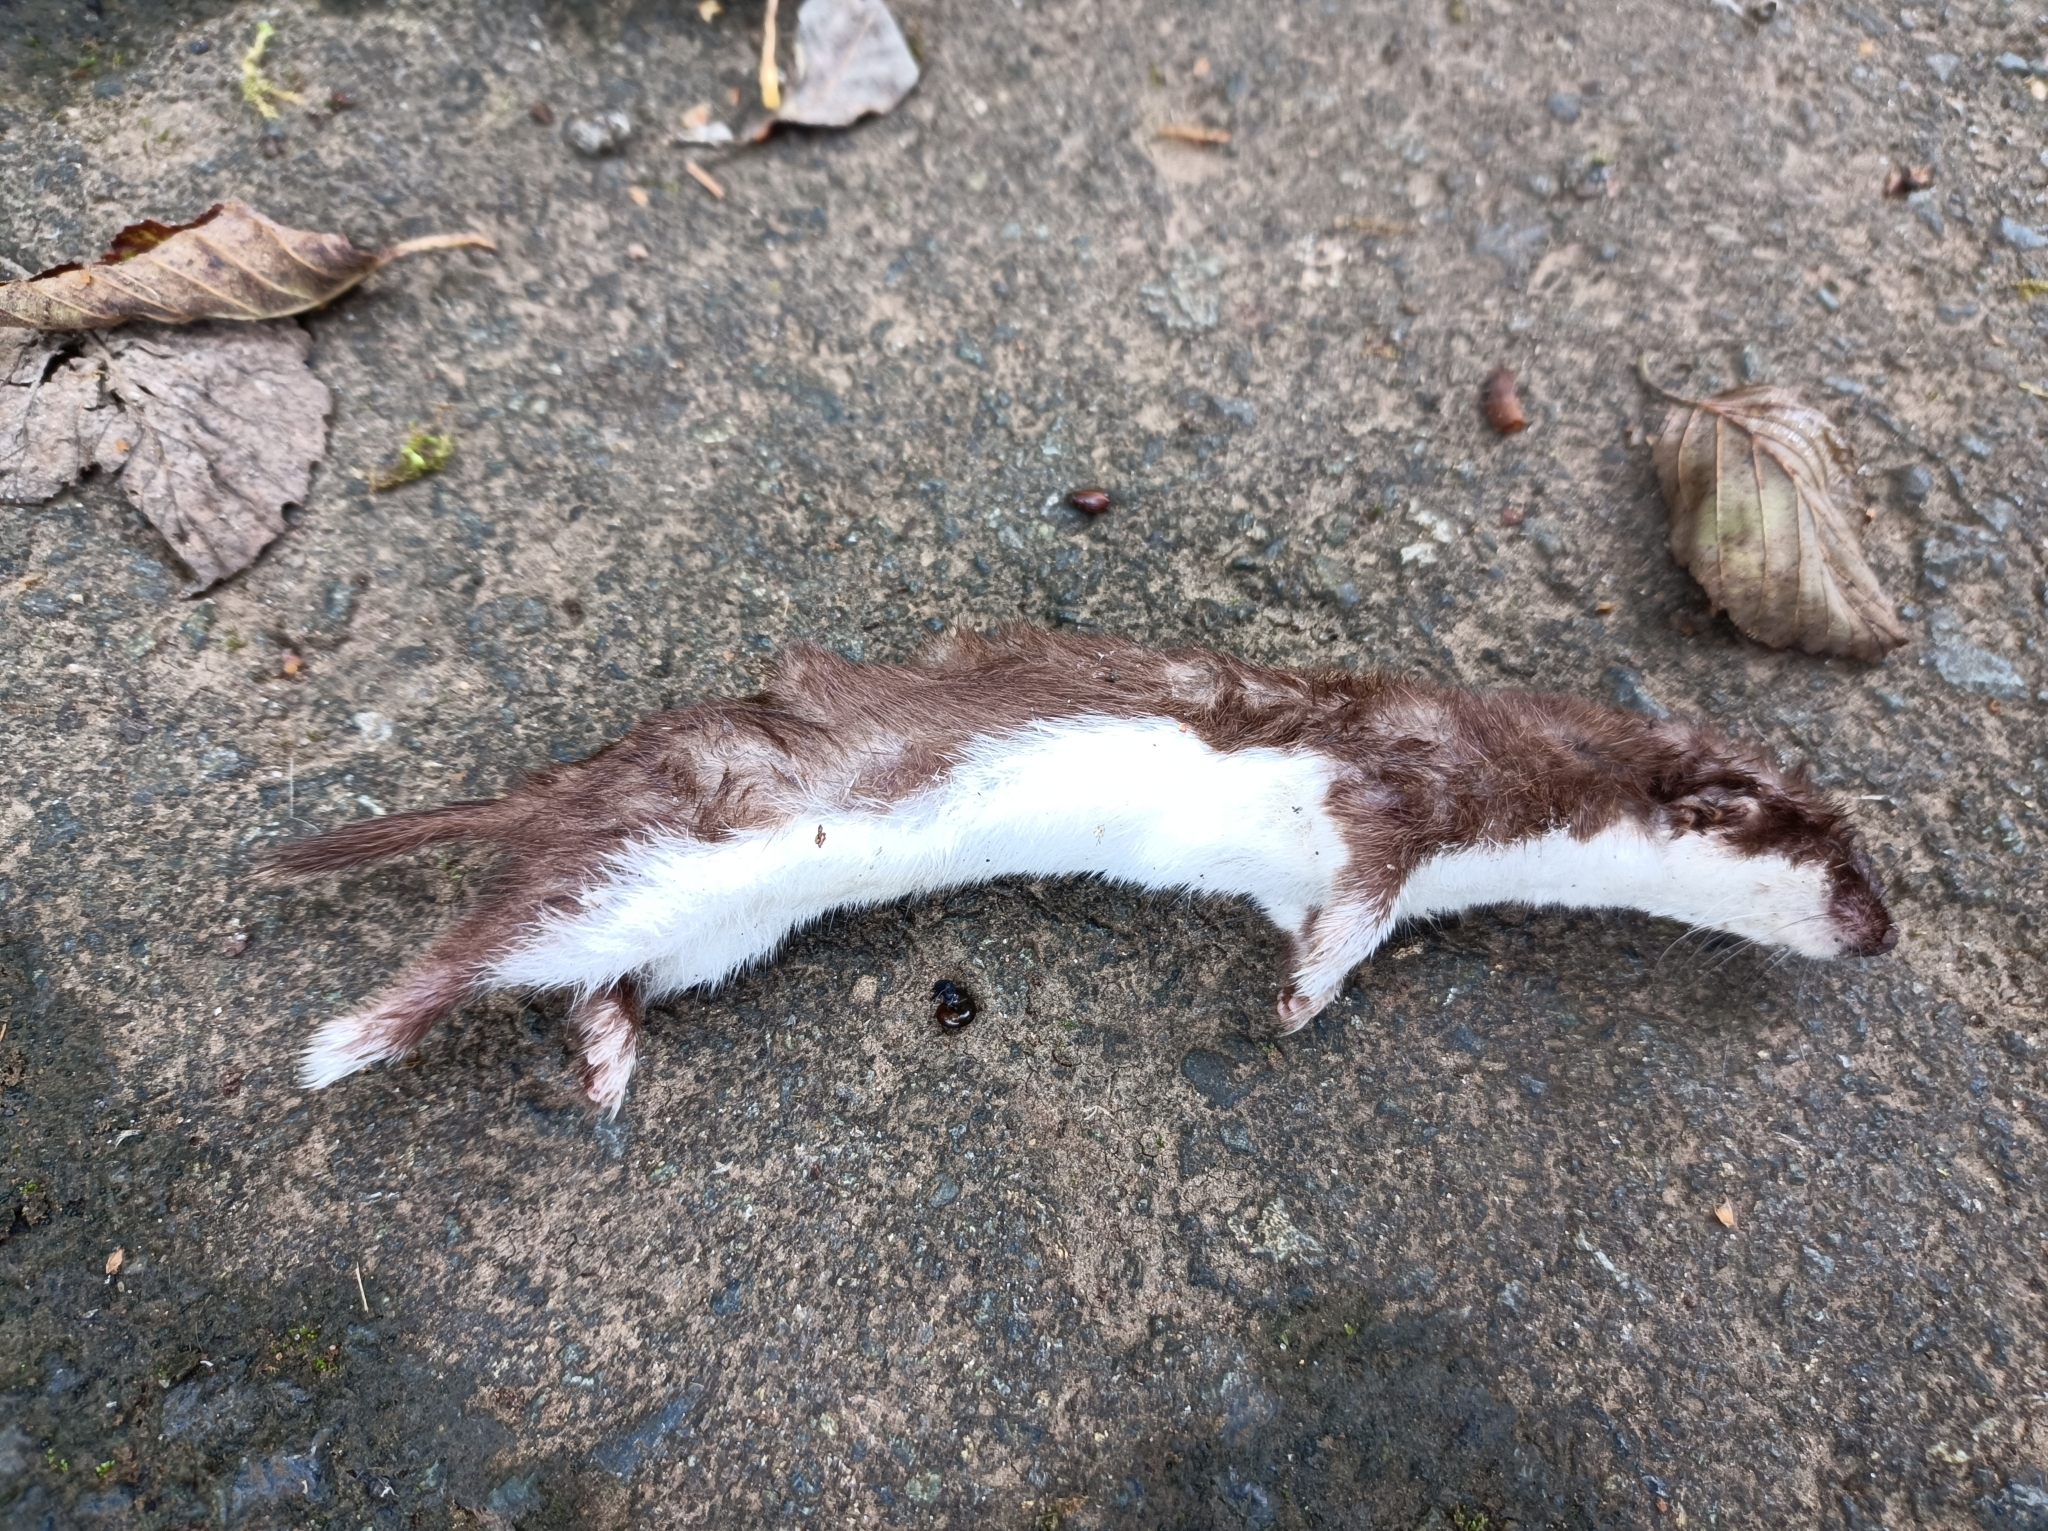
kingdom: Animalia
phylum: Chordata
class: Mammalia
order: Carnivora
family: Mustelidae
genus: Mustela
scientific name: Mustela nivalis
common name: Least weasel
